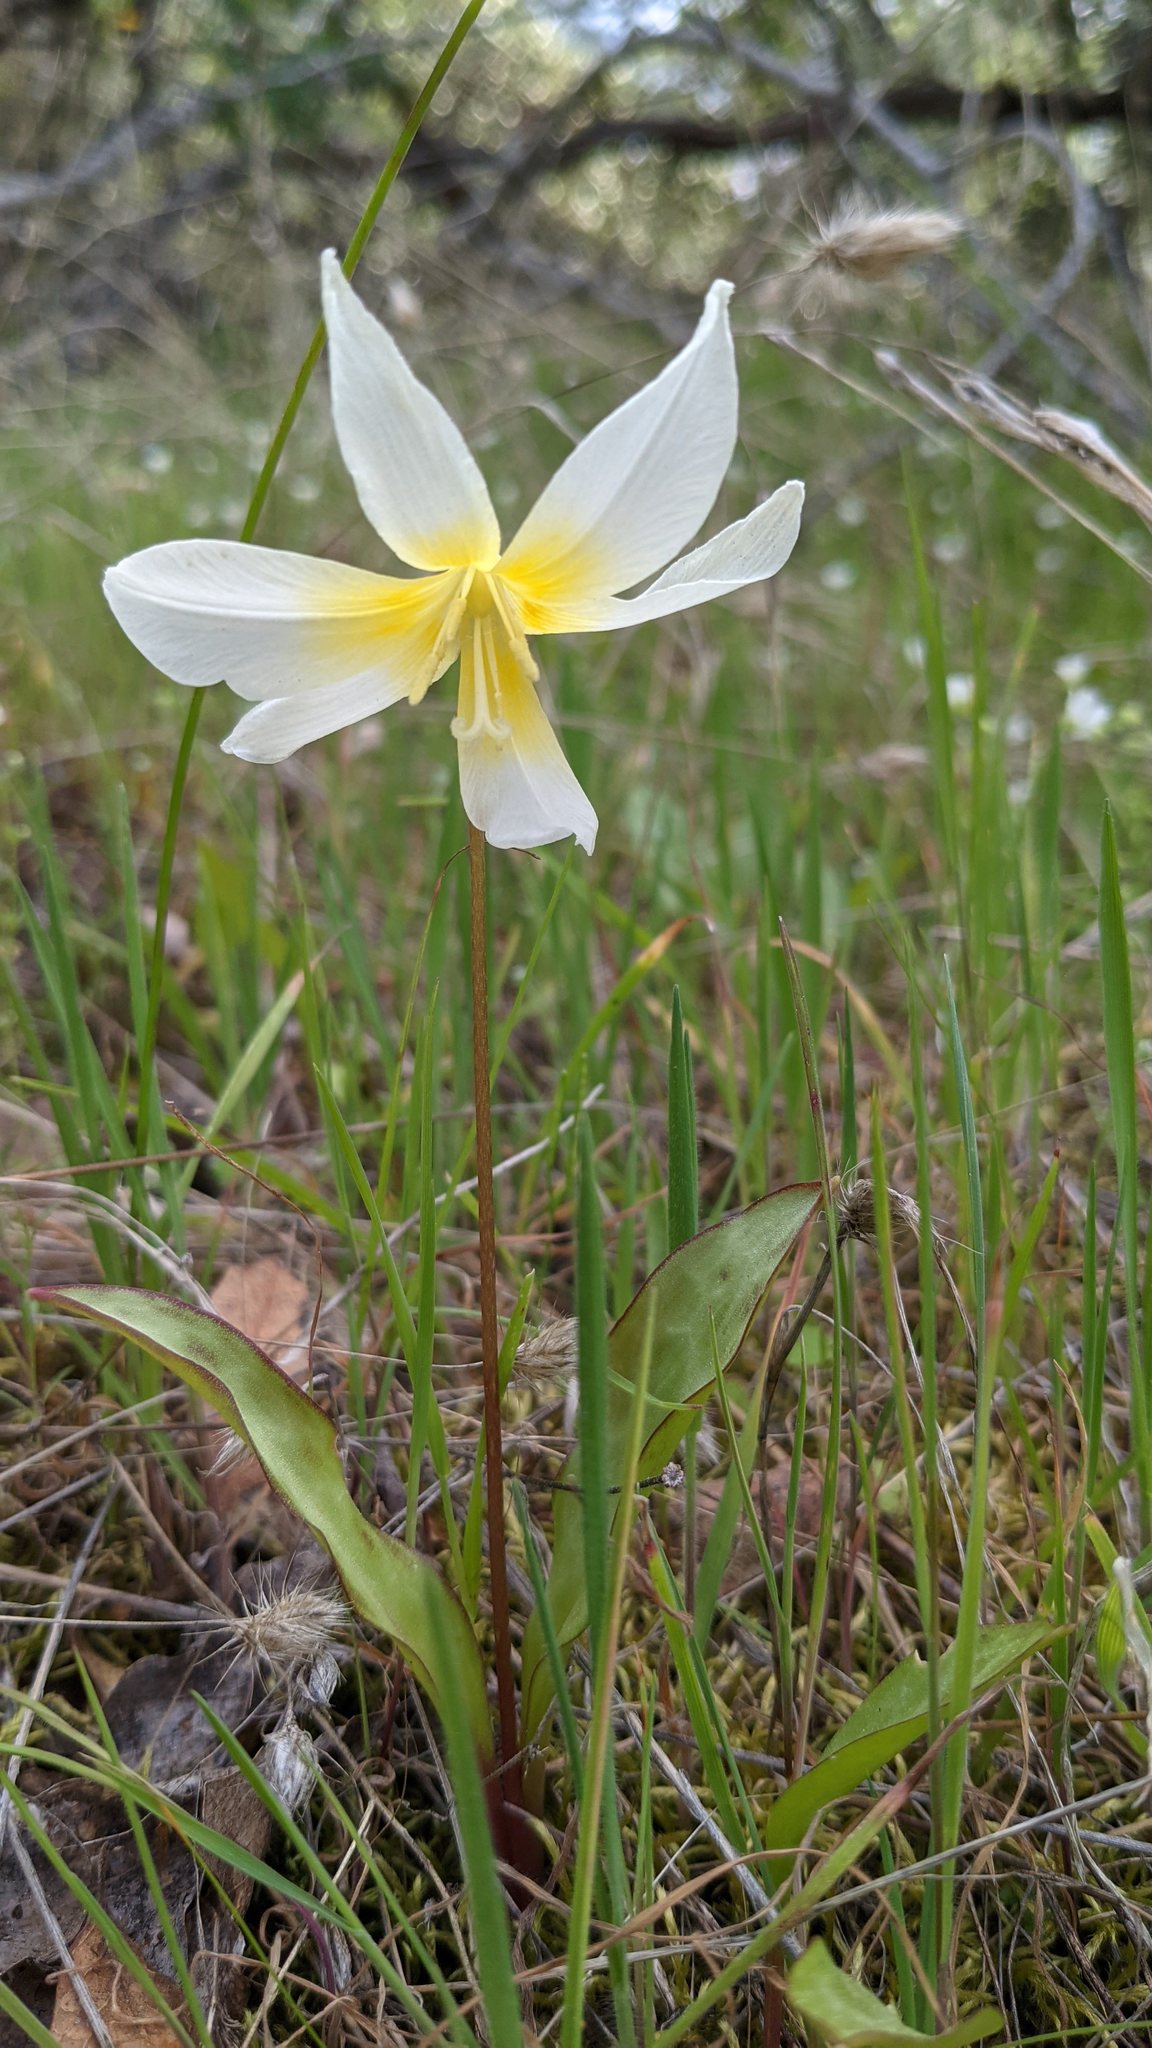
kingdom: Plantae
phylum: Tracheophyta
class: Liliopsida
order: Liliales
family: Liliaceae
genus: Erythronium
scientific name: Erythronium multiscapideum
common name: Sierra foothills fawn-lily
